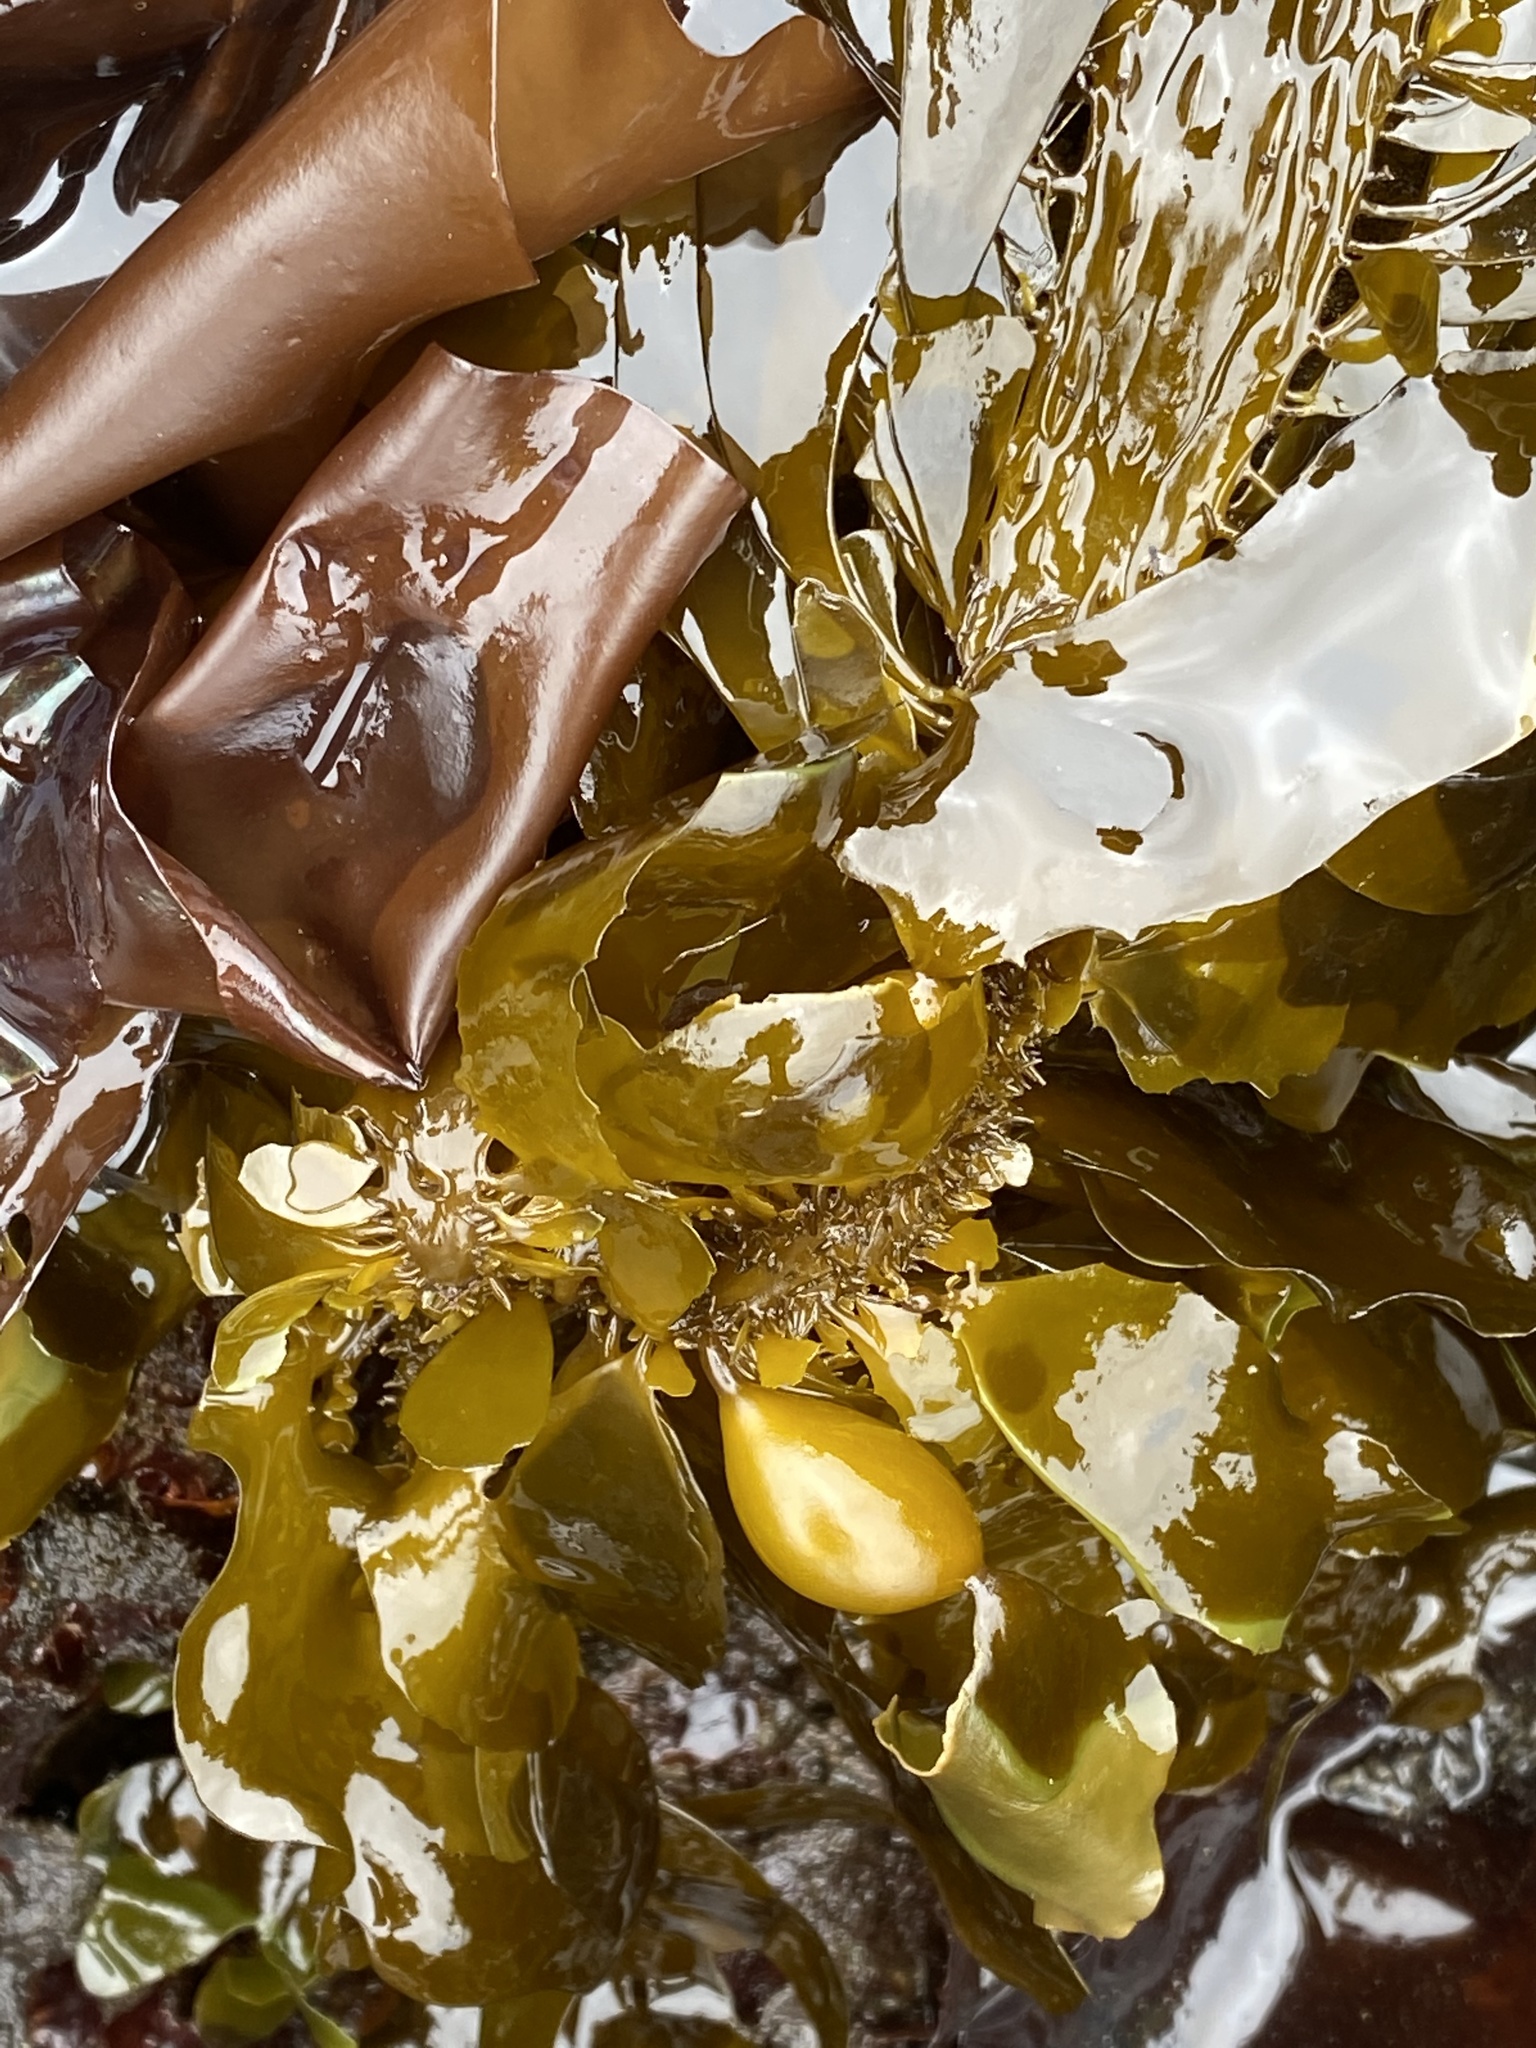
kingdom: Chromista
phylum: Ochrophyta
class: Phaeophyceae
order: Laminariales
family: Lessoniaceae
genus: Egregia
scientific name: Egregia menziesii
